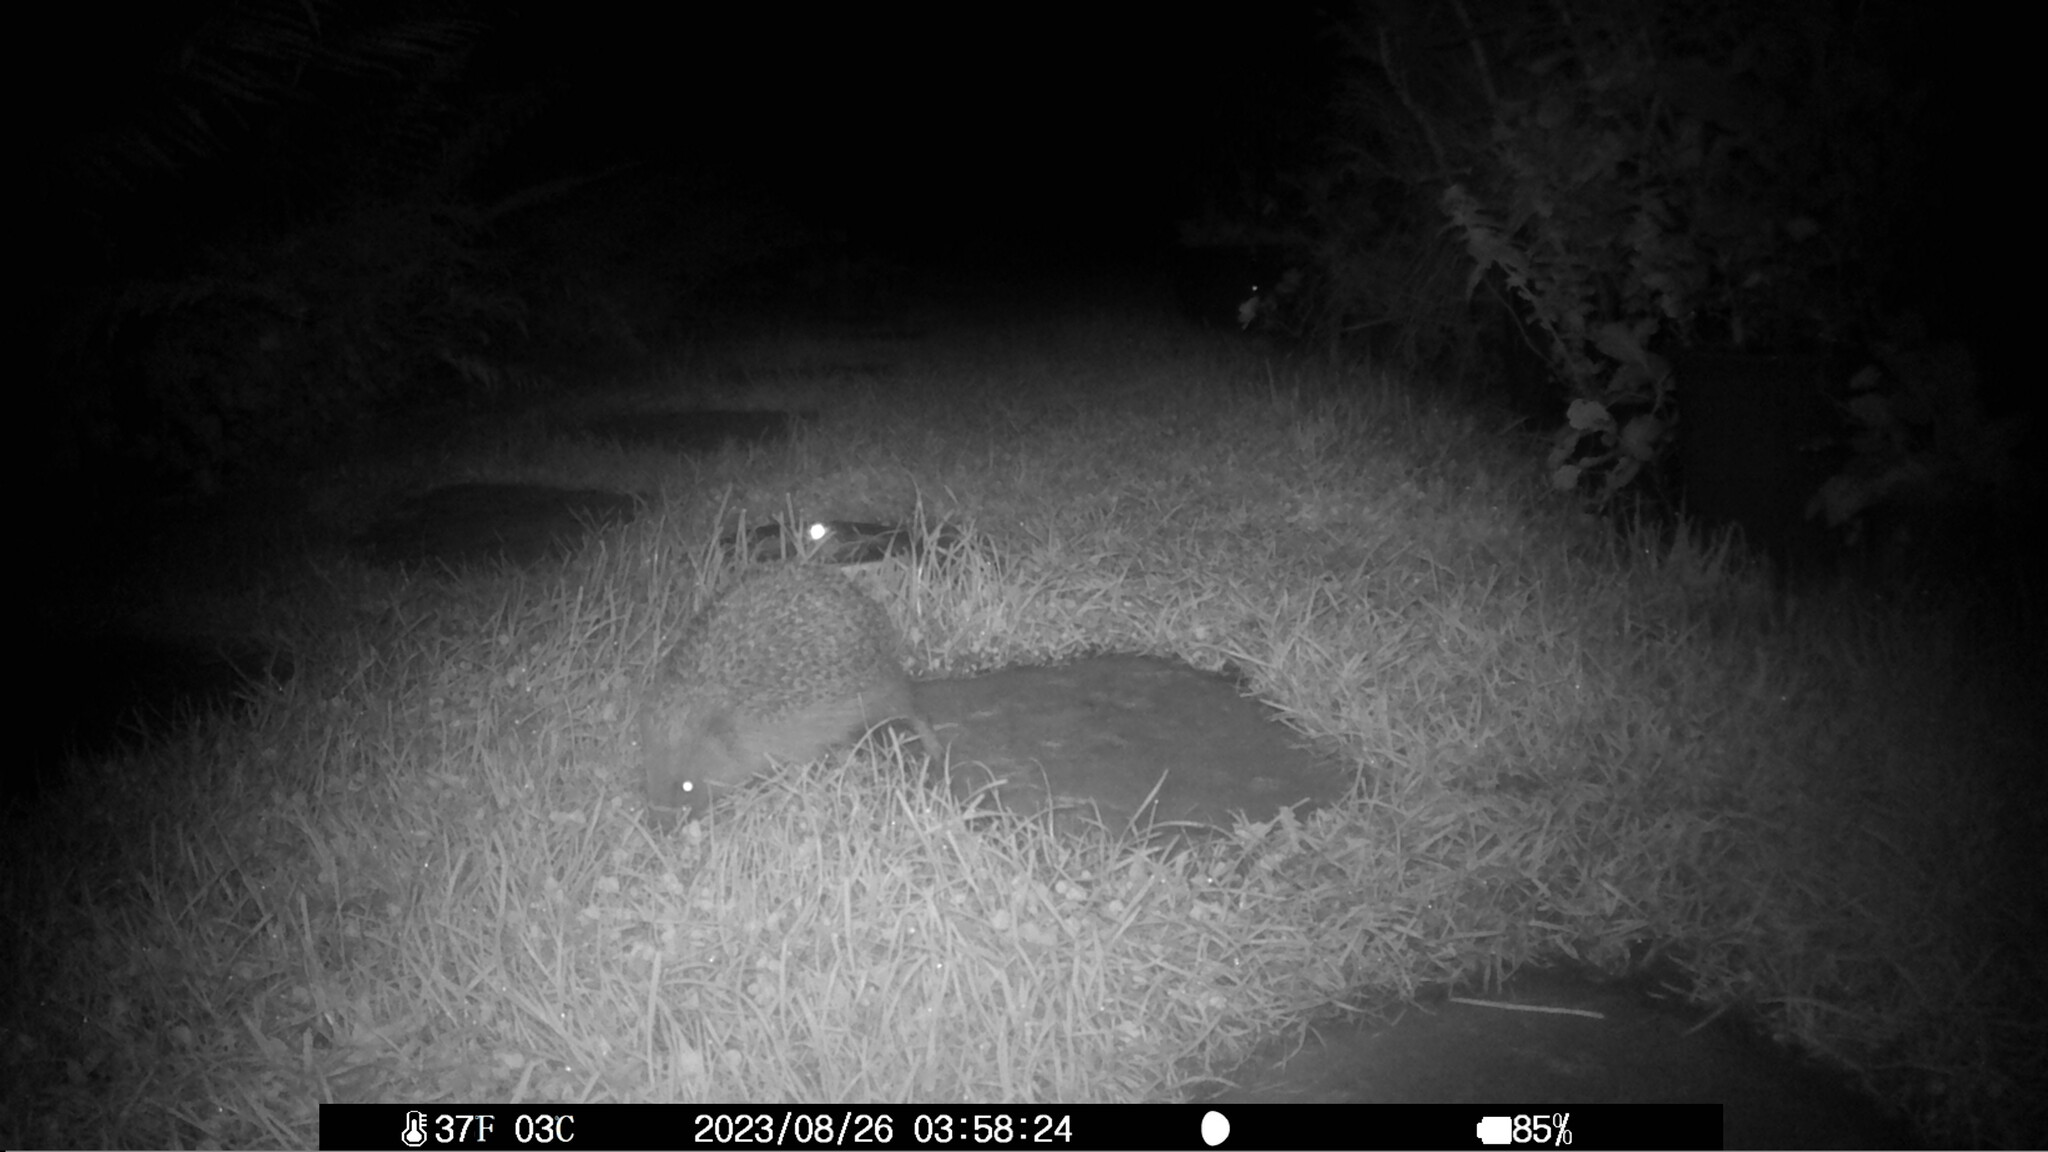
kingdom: Animalia
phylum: Chordata
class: Mammalia
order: Erinaceomorpha
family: Erinaceidae
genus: Erinaceus
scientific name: Erinaceus europaeus
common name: West european hedgehog
